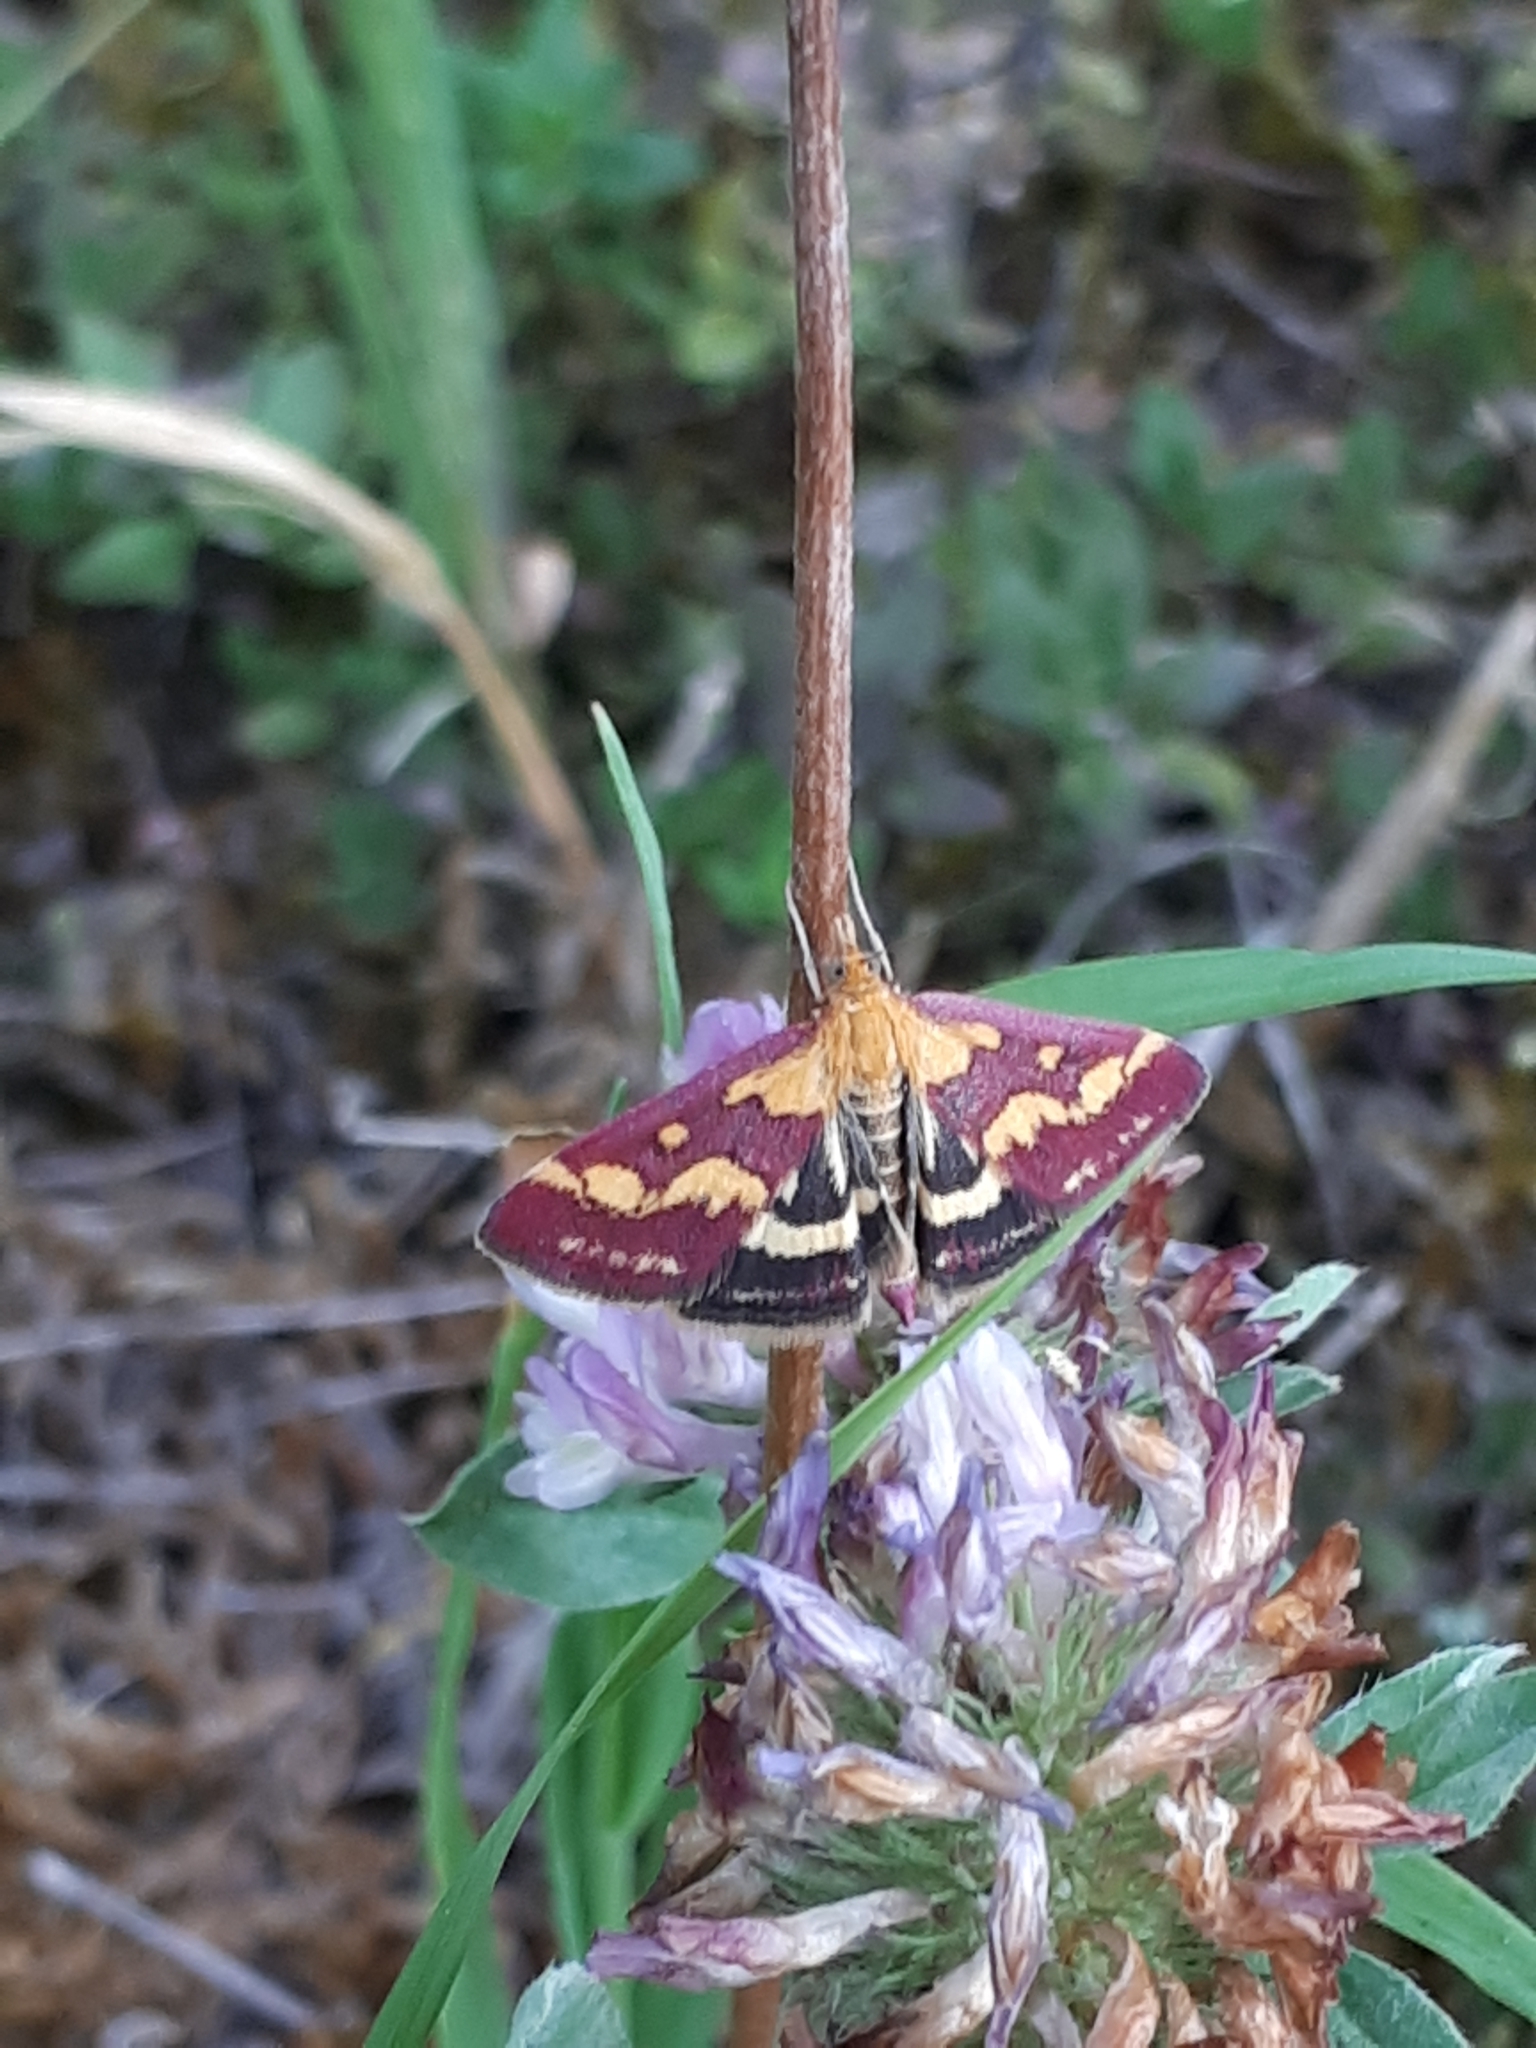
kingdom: Animalia
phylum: Arthropoda
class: Insecta
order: Lepidoptera
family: Crambidae
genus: Pyrausta
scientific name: Pyrausta purpuralis
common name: Common purple & gold
